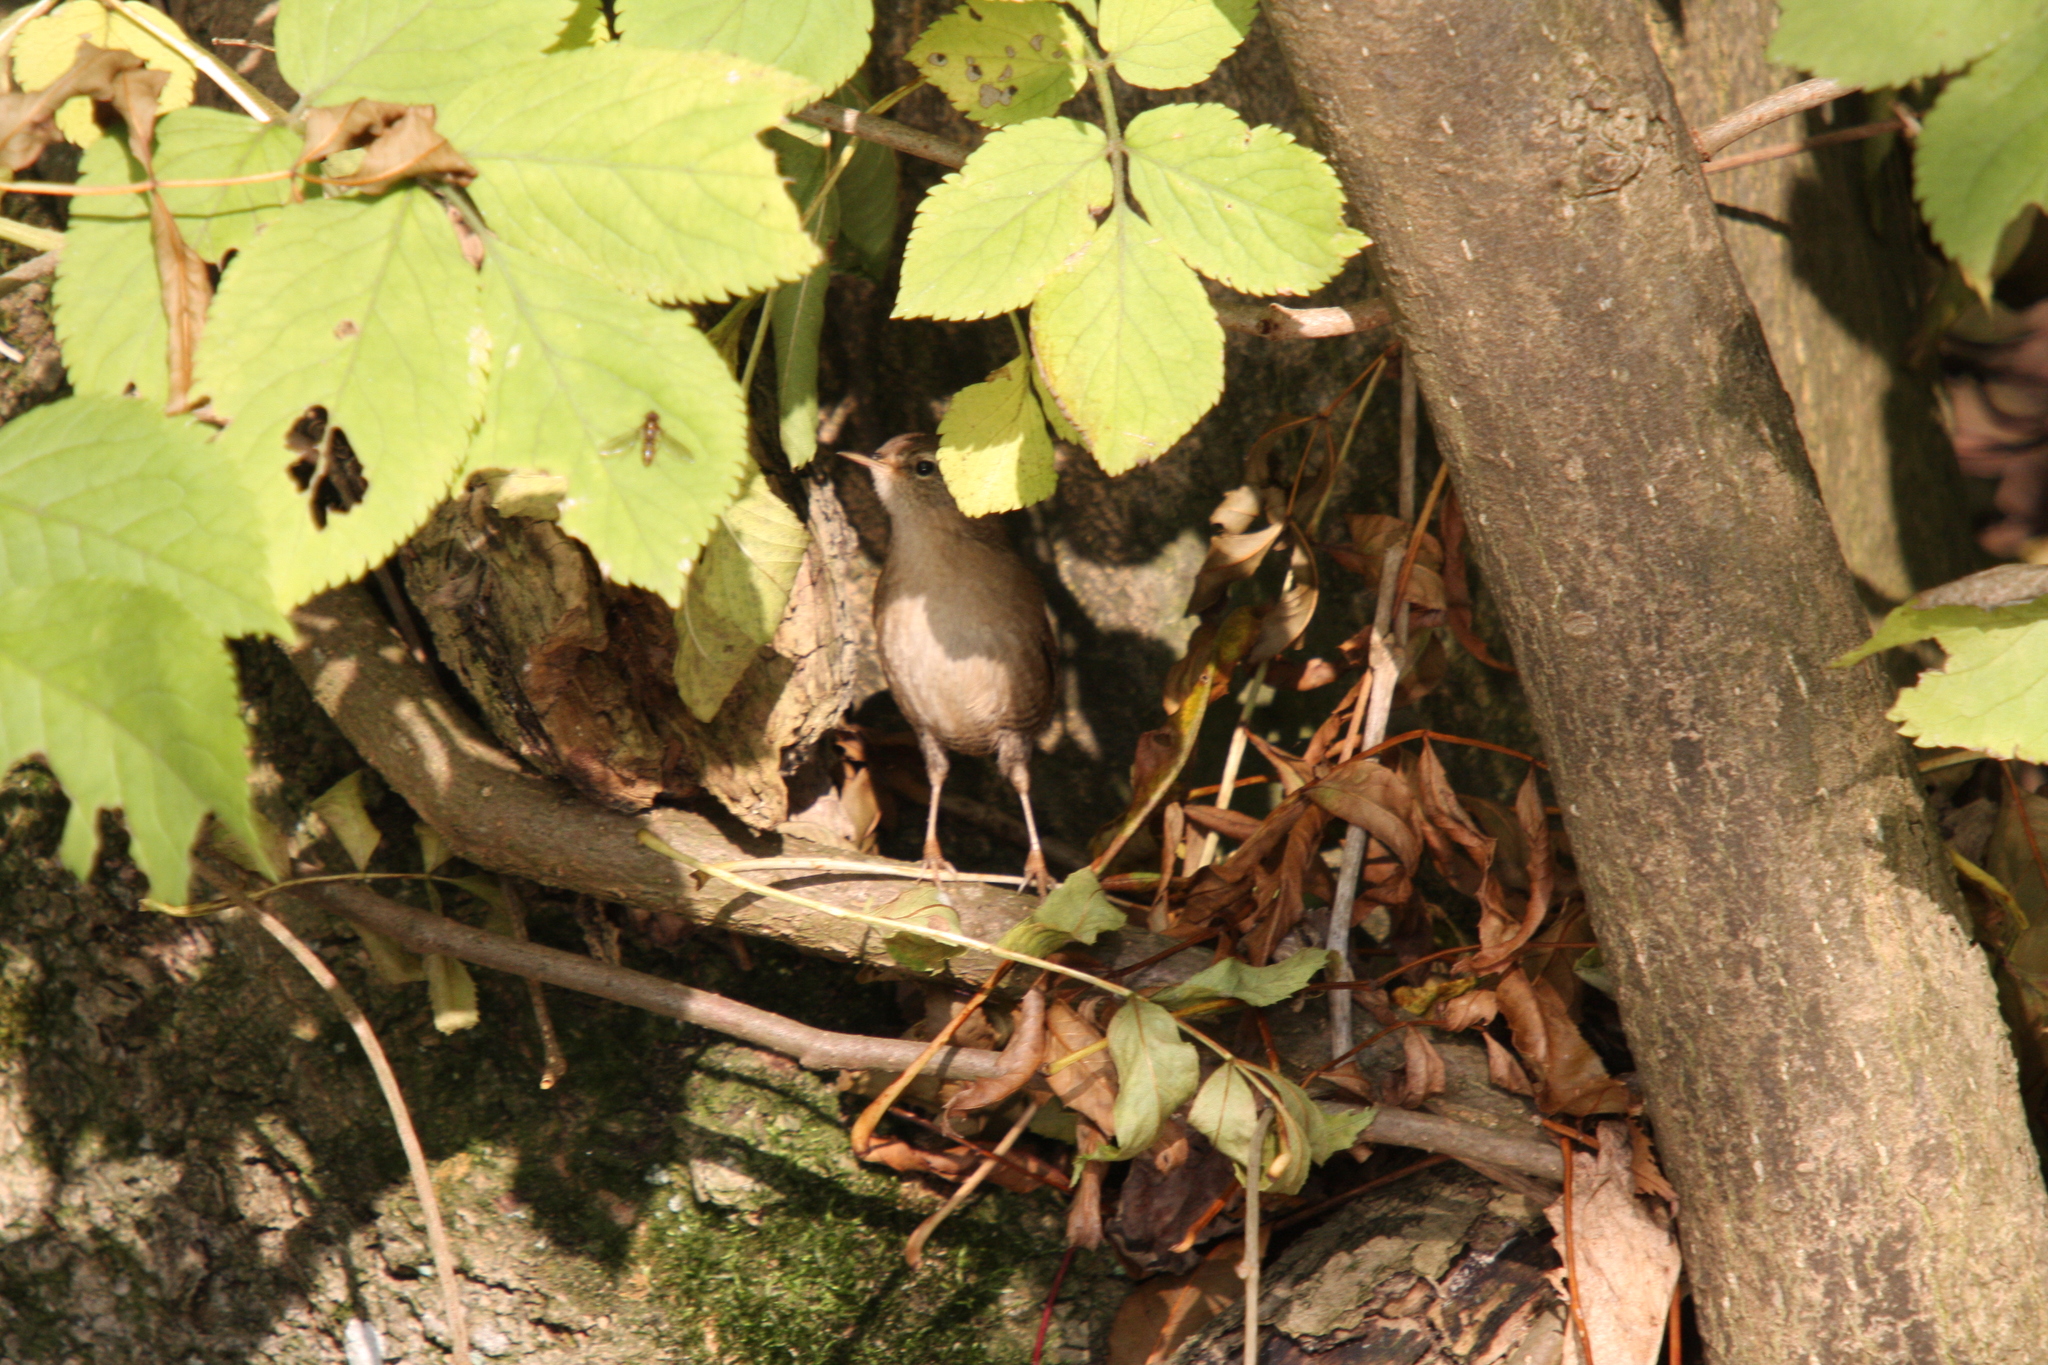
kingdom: Animalia
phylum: Chordata
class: Aves
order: Passeriformes
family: Troglodytidae
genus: Troglodytes
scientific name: Troglodytes troglodytes
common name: Eurasian wren
